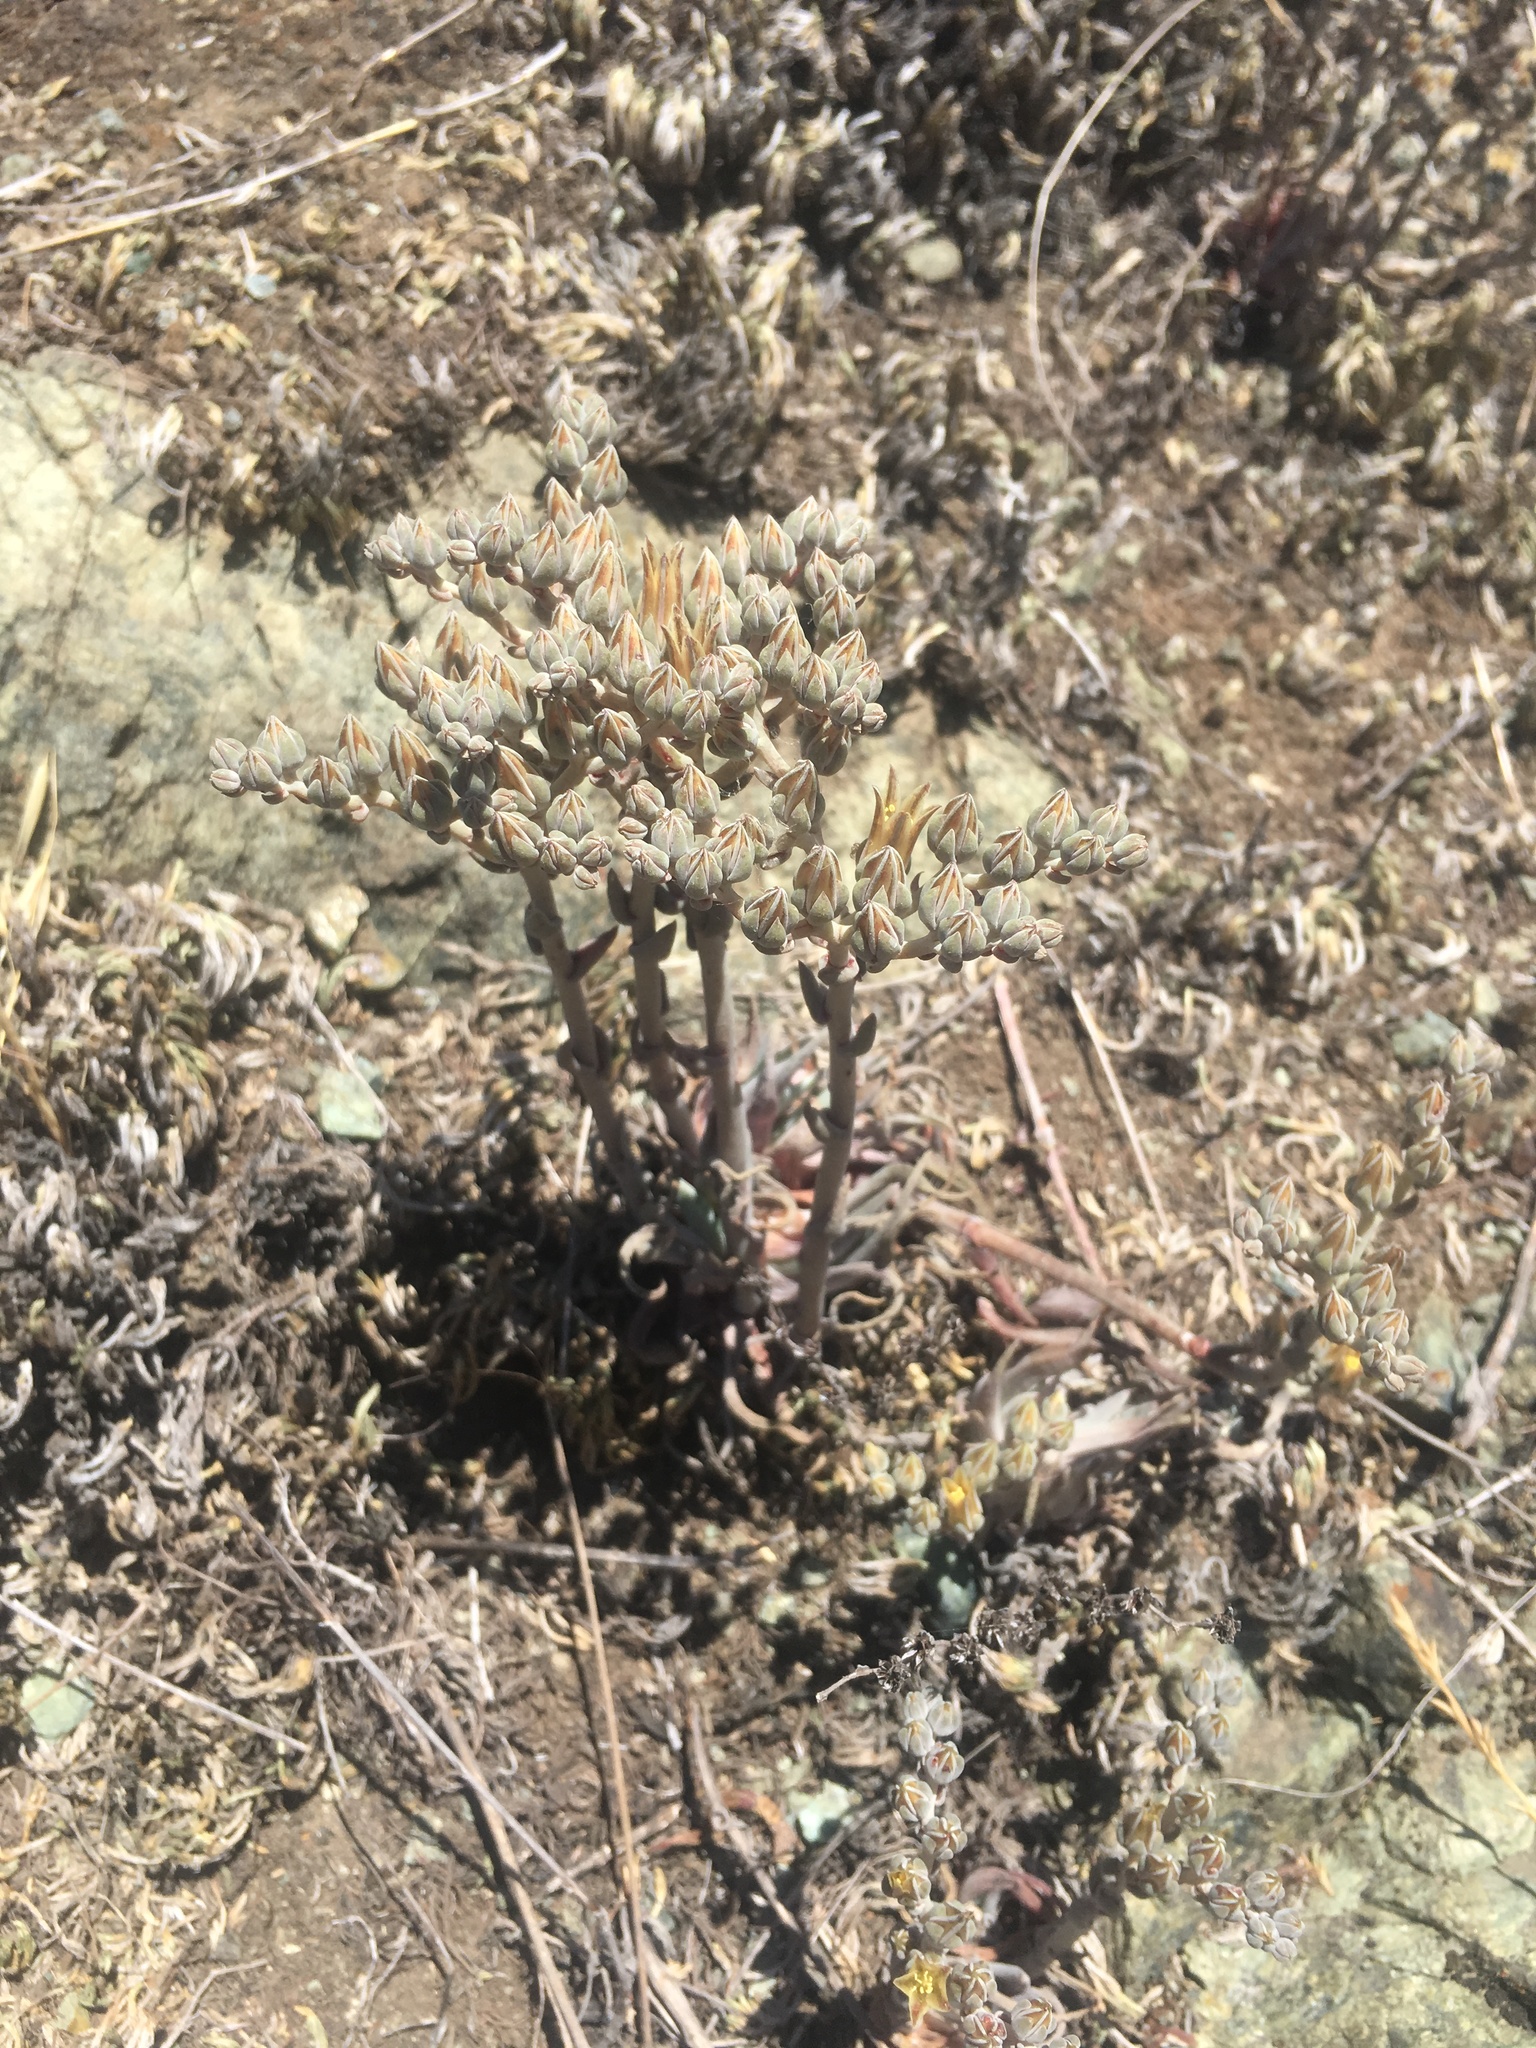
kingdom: Plantae
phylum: Tracheophyta
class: Magnoliopsida
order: Saxifragales
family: Crassulaceae
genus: Dudleya
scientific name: Dudleya abramsii
